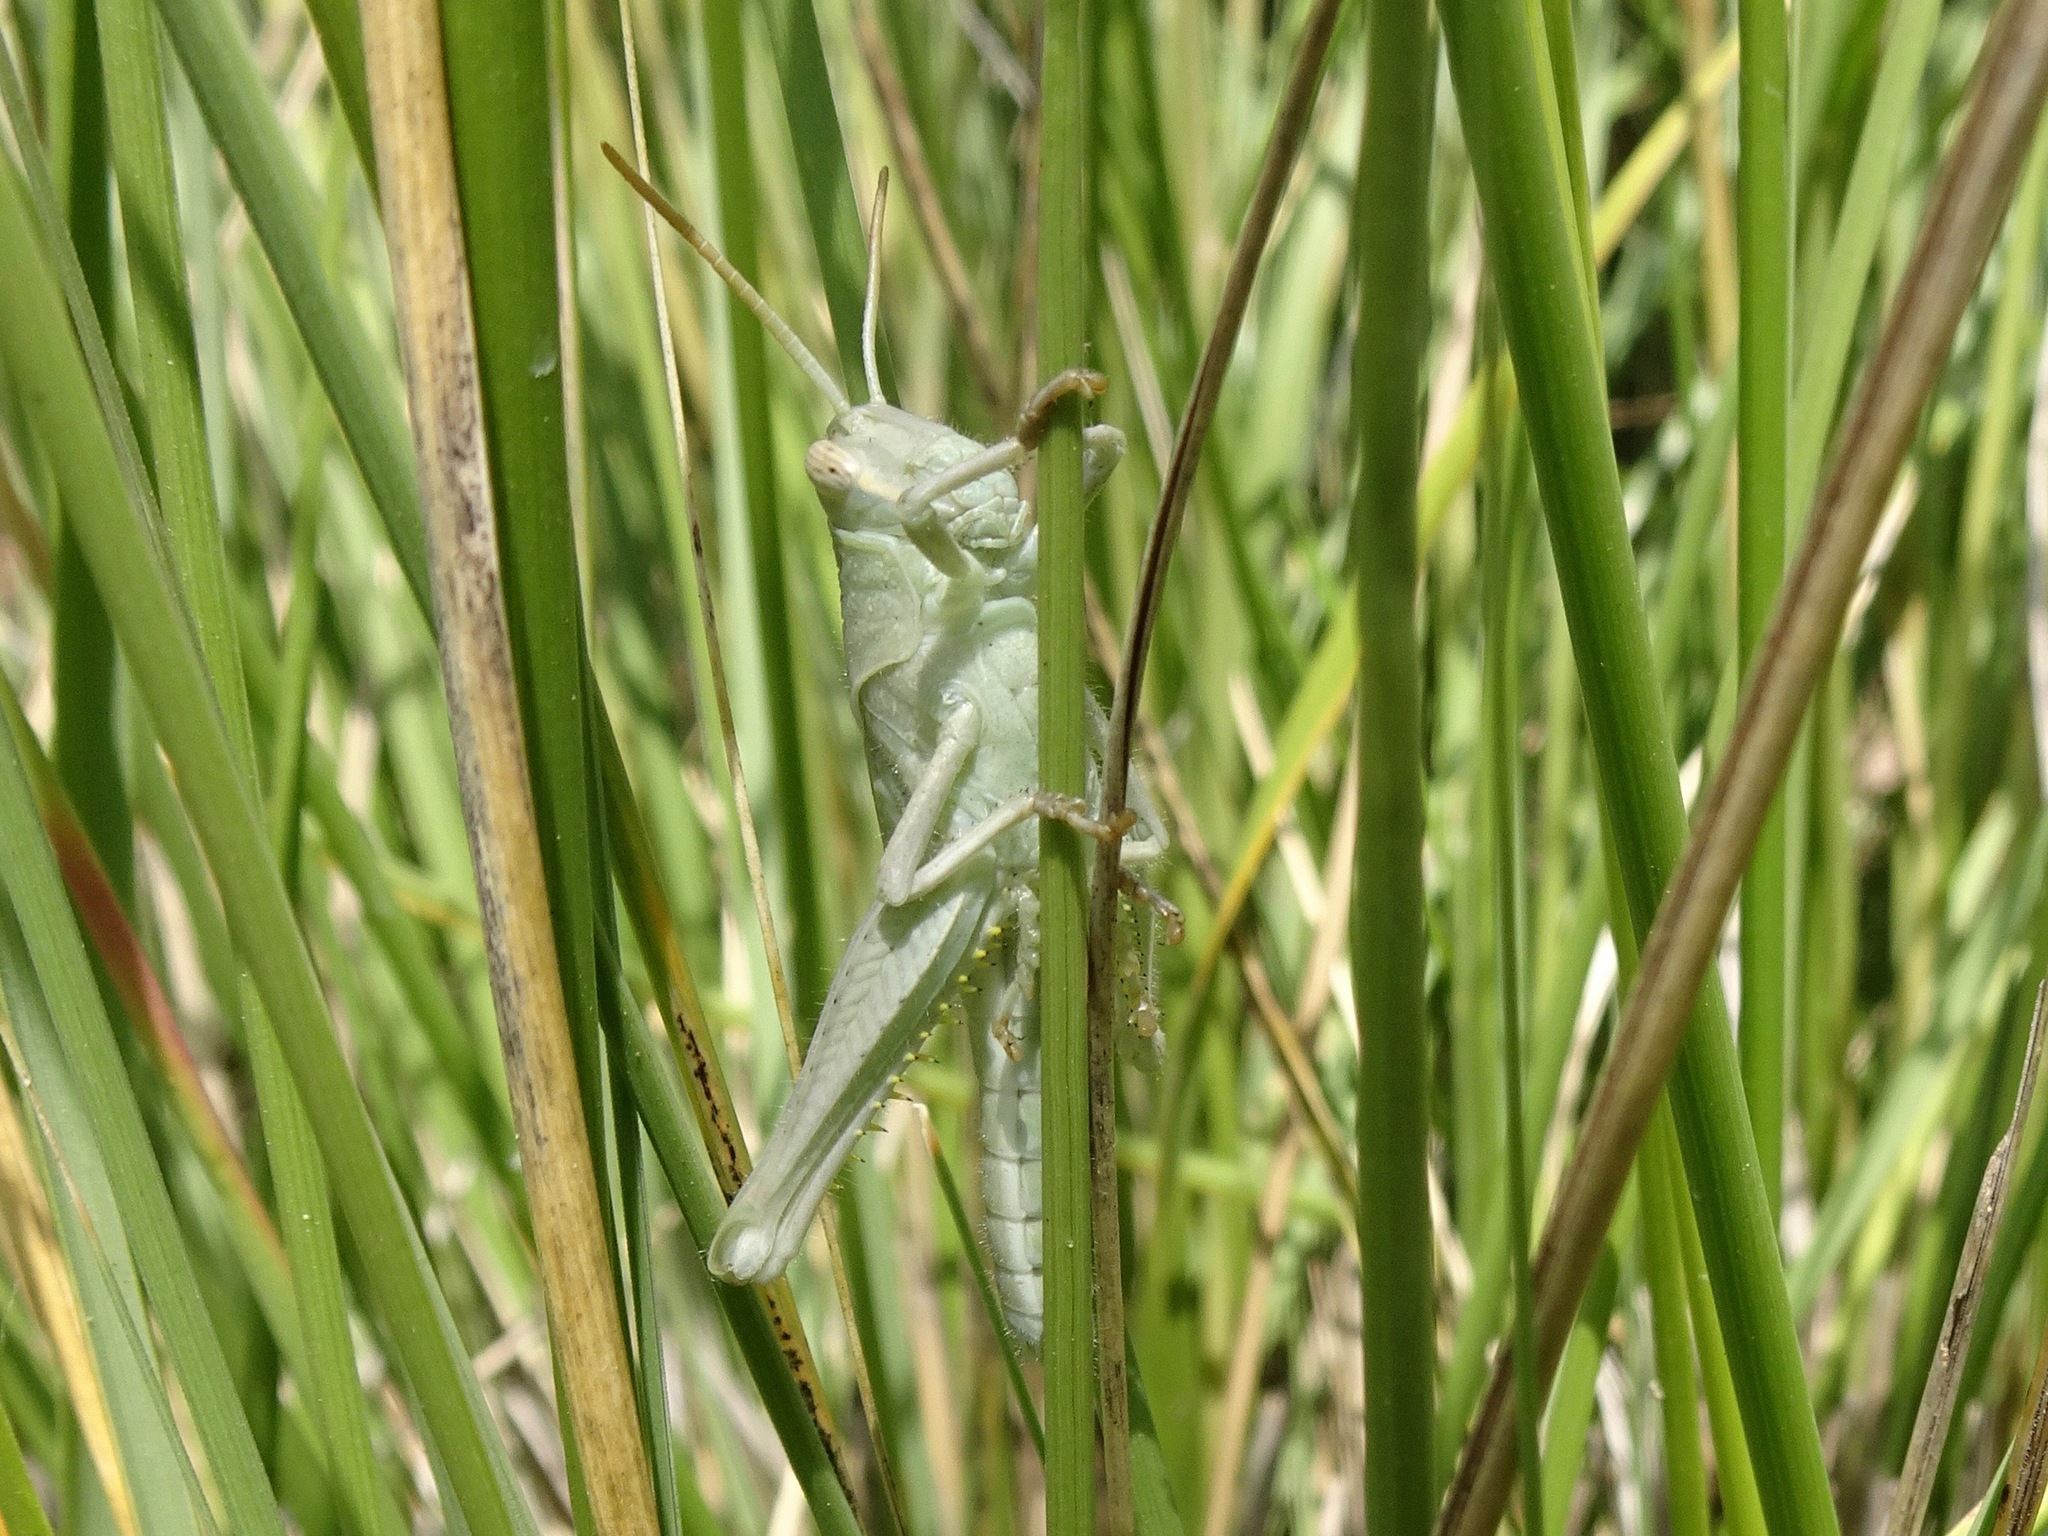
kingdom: Animalia
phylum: Arthropoda
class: Insecta
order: Orthoptera
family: Acrididae
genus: Schistocerca
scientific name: Schistocerca nitens
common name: Vagrant grasshopper
